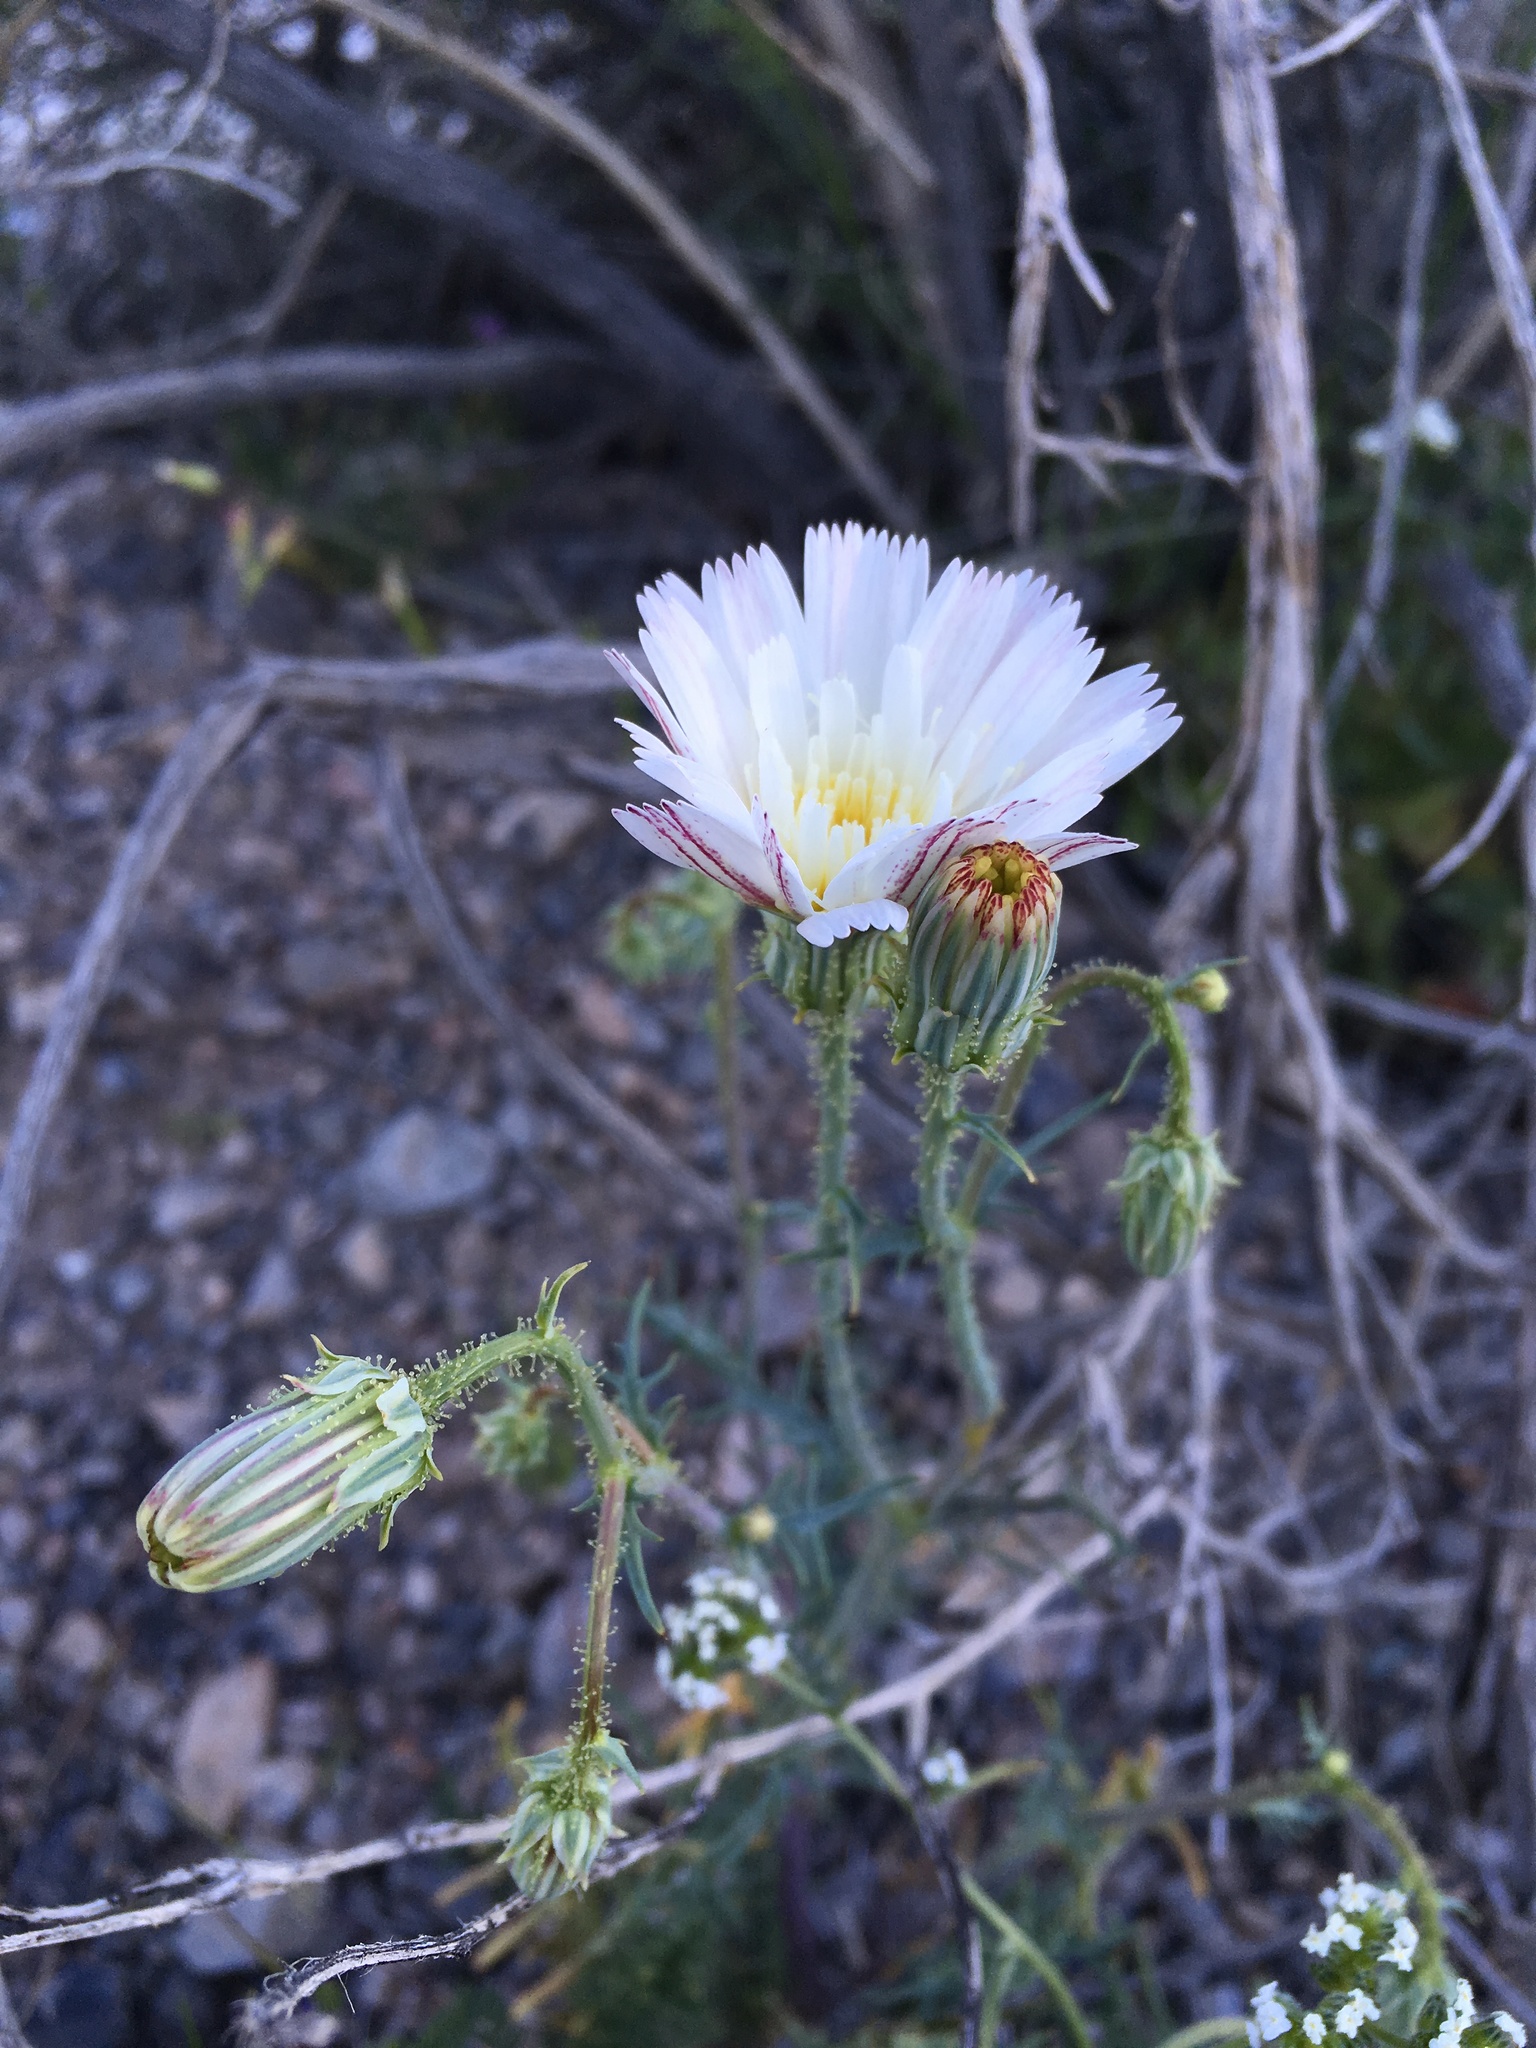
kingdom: Plantae
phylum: Tracheophyta
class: Magnoliopsida
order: Asterales
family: Asteraceae
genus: Calycoseris
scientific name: Calycoseris wrightii
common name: White tackstem
